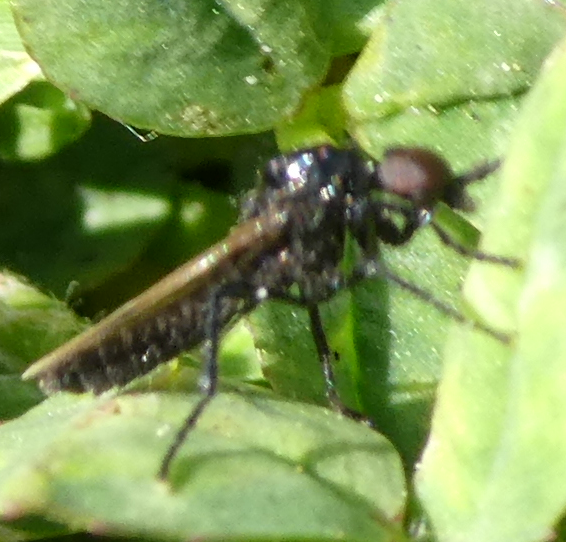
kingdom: Animalia
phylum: Arthropoda
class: Insecta
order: Diptera
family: Bibionidae
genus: Dilophus
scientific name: Dilophus orbatus
